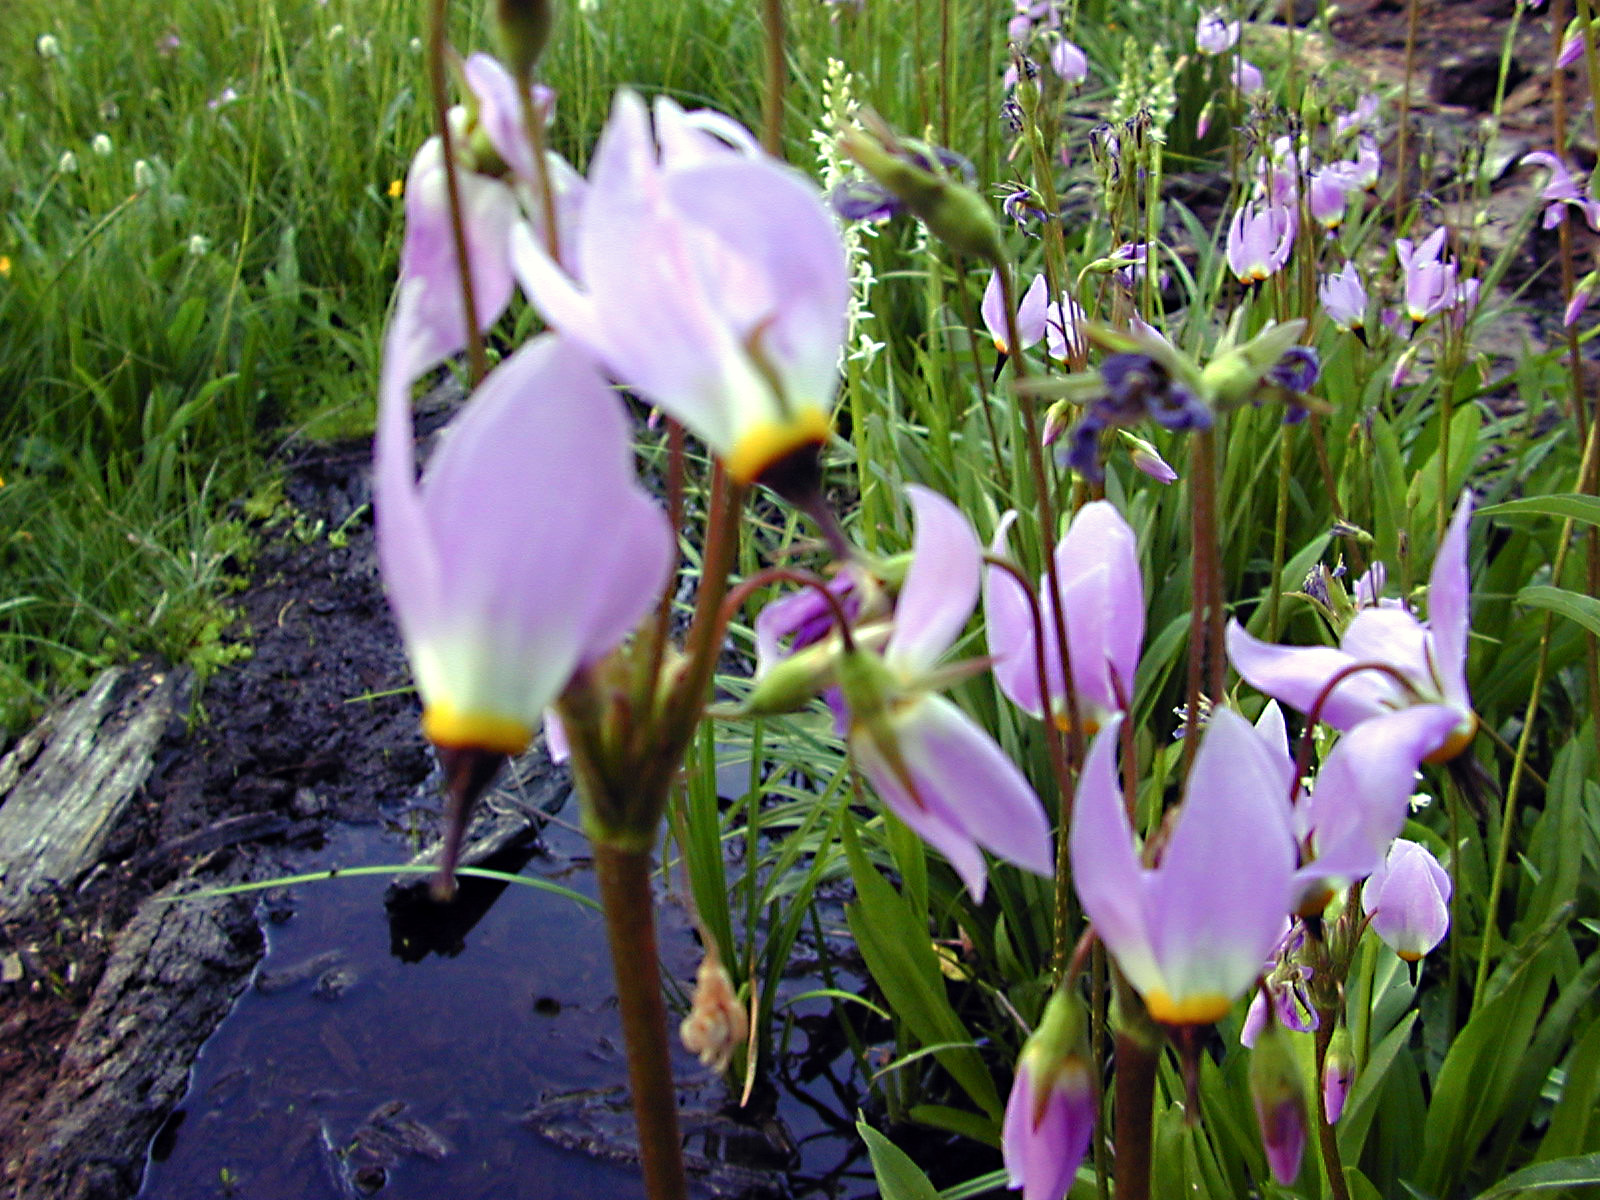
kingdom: Plantae
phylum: Tracheophyta
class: Magnoliopsida
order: Ericales
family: Primulaceae
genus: Dodecatheon
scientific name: Dodecatheon jeffreyanum
